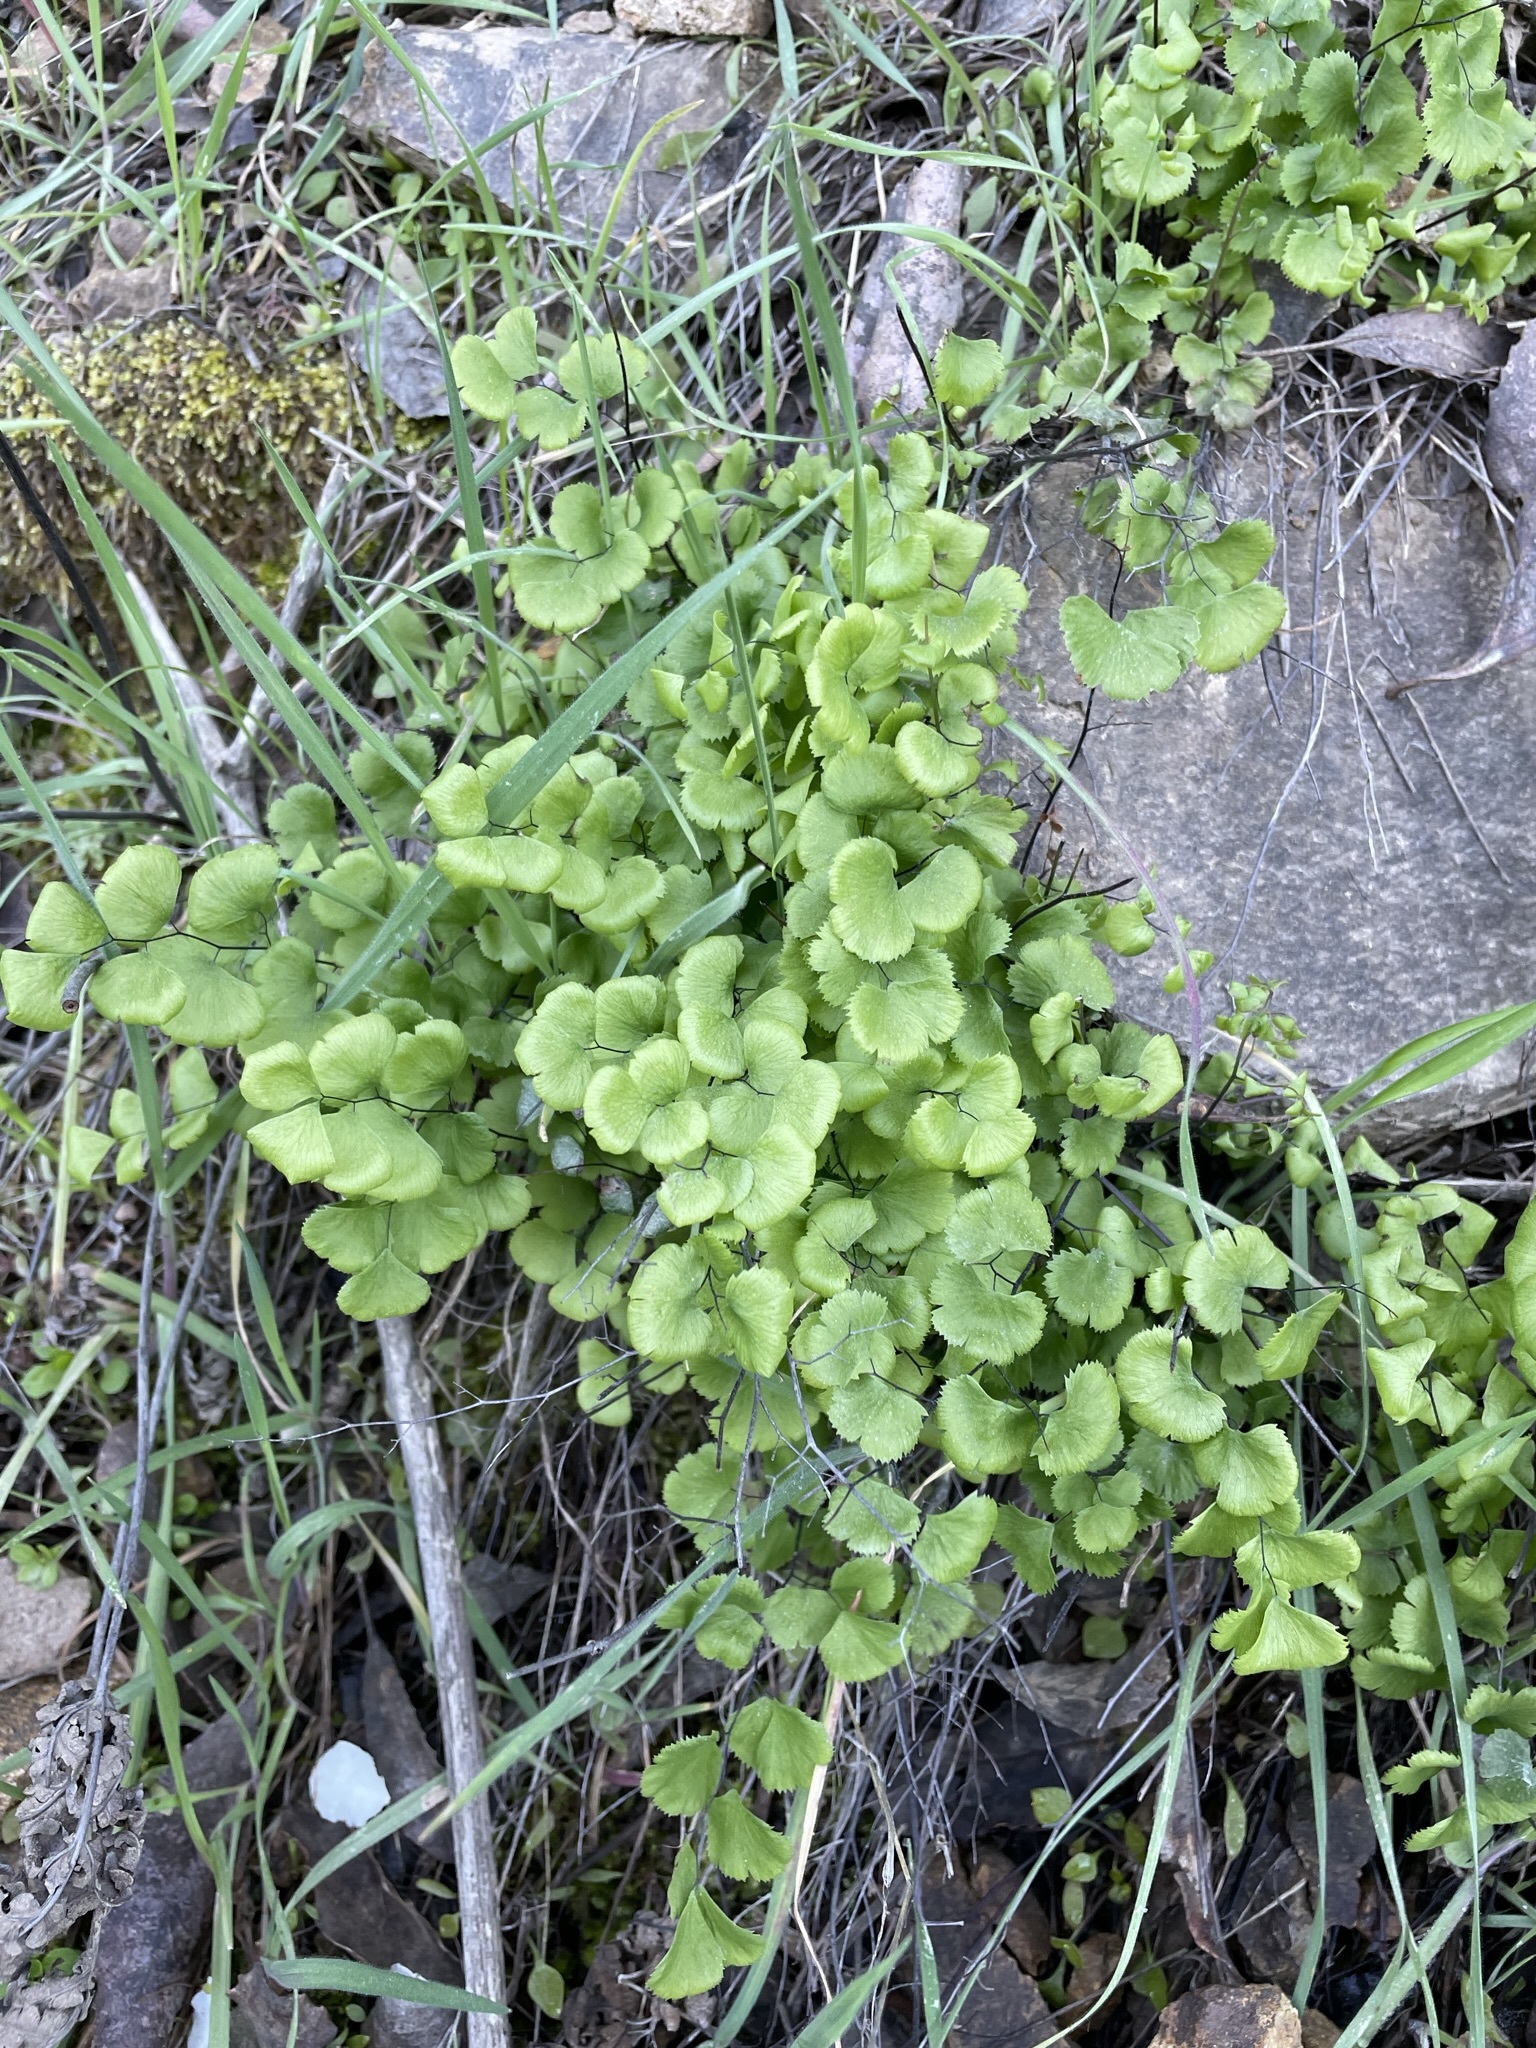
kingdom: Plantae
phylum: Tracheophyta
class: Polypodiopsida
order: Polypodiales
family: Pteridaceae
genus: Adiantum
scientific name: Adiantum jordanii
